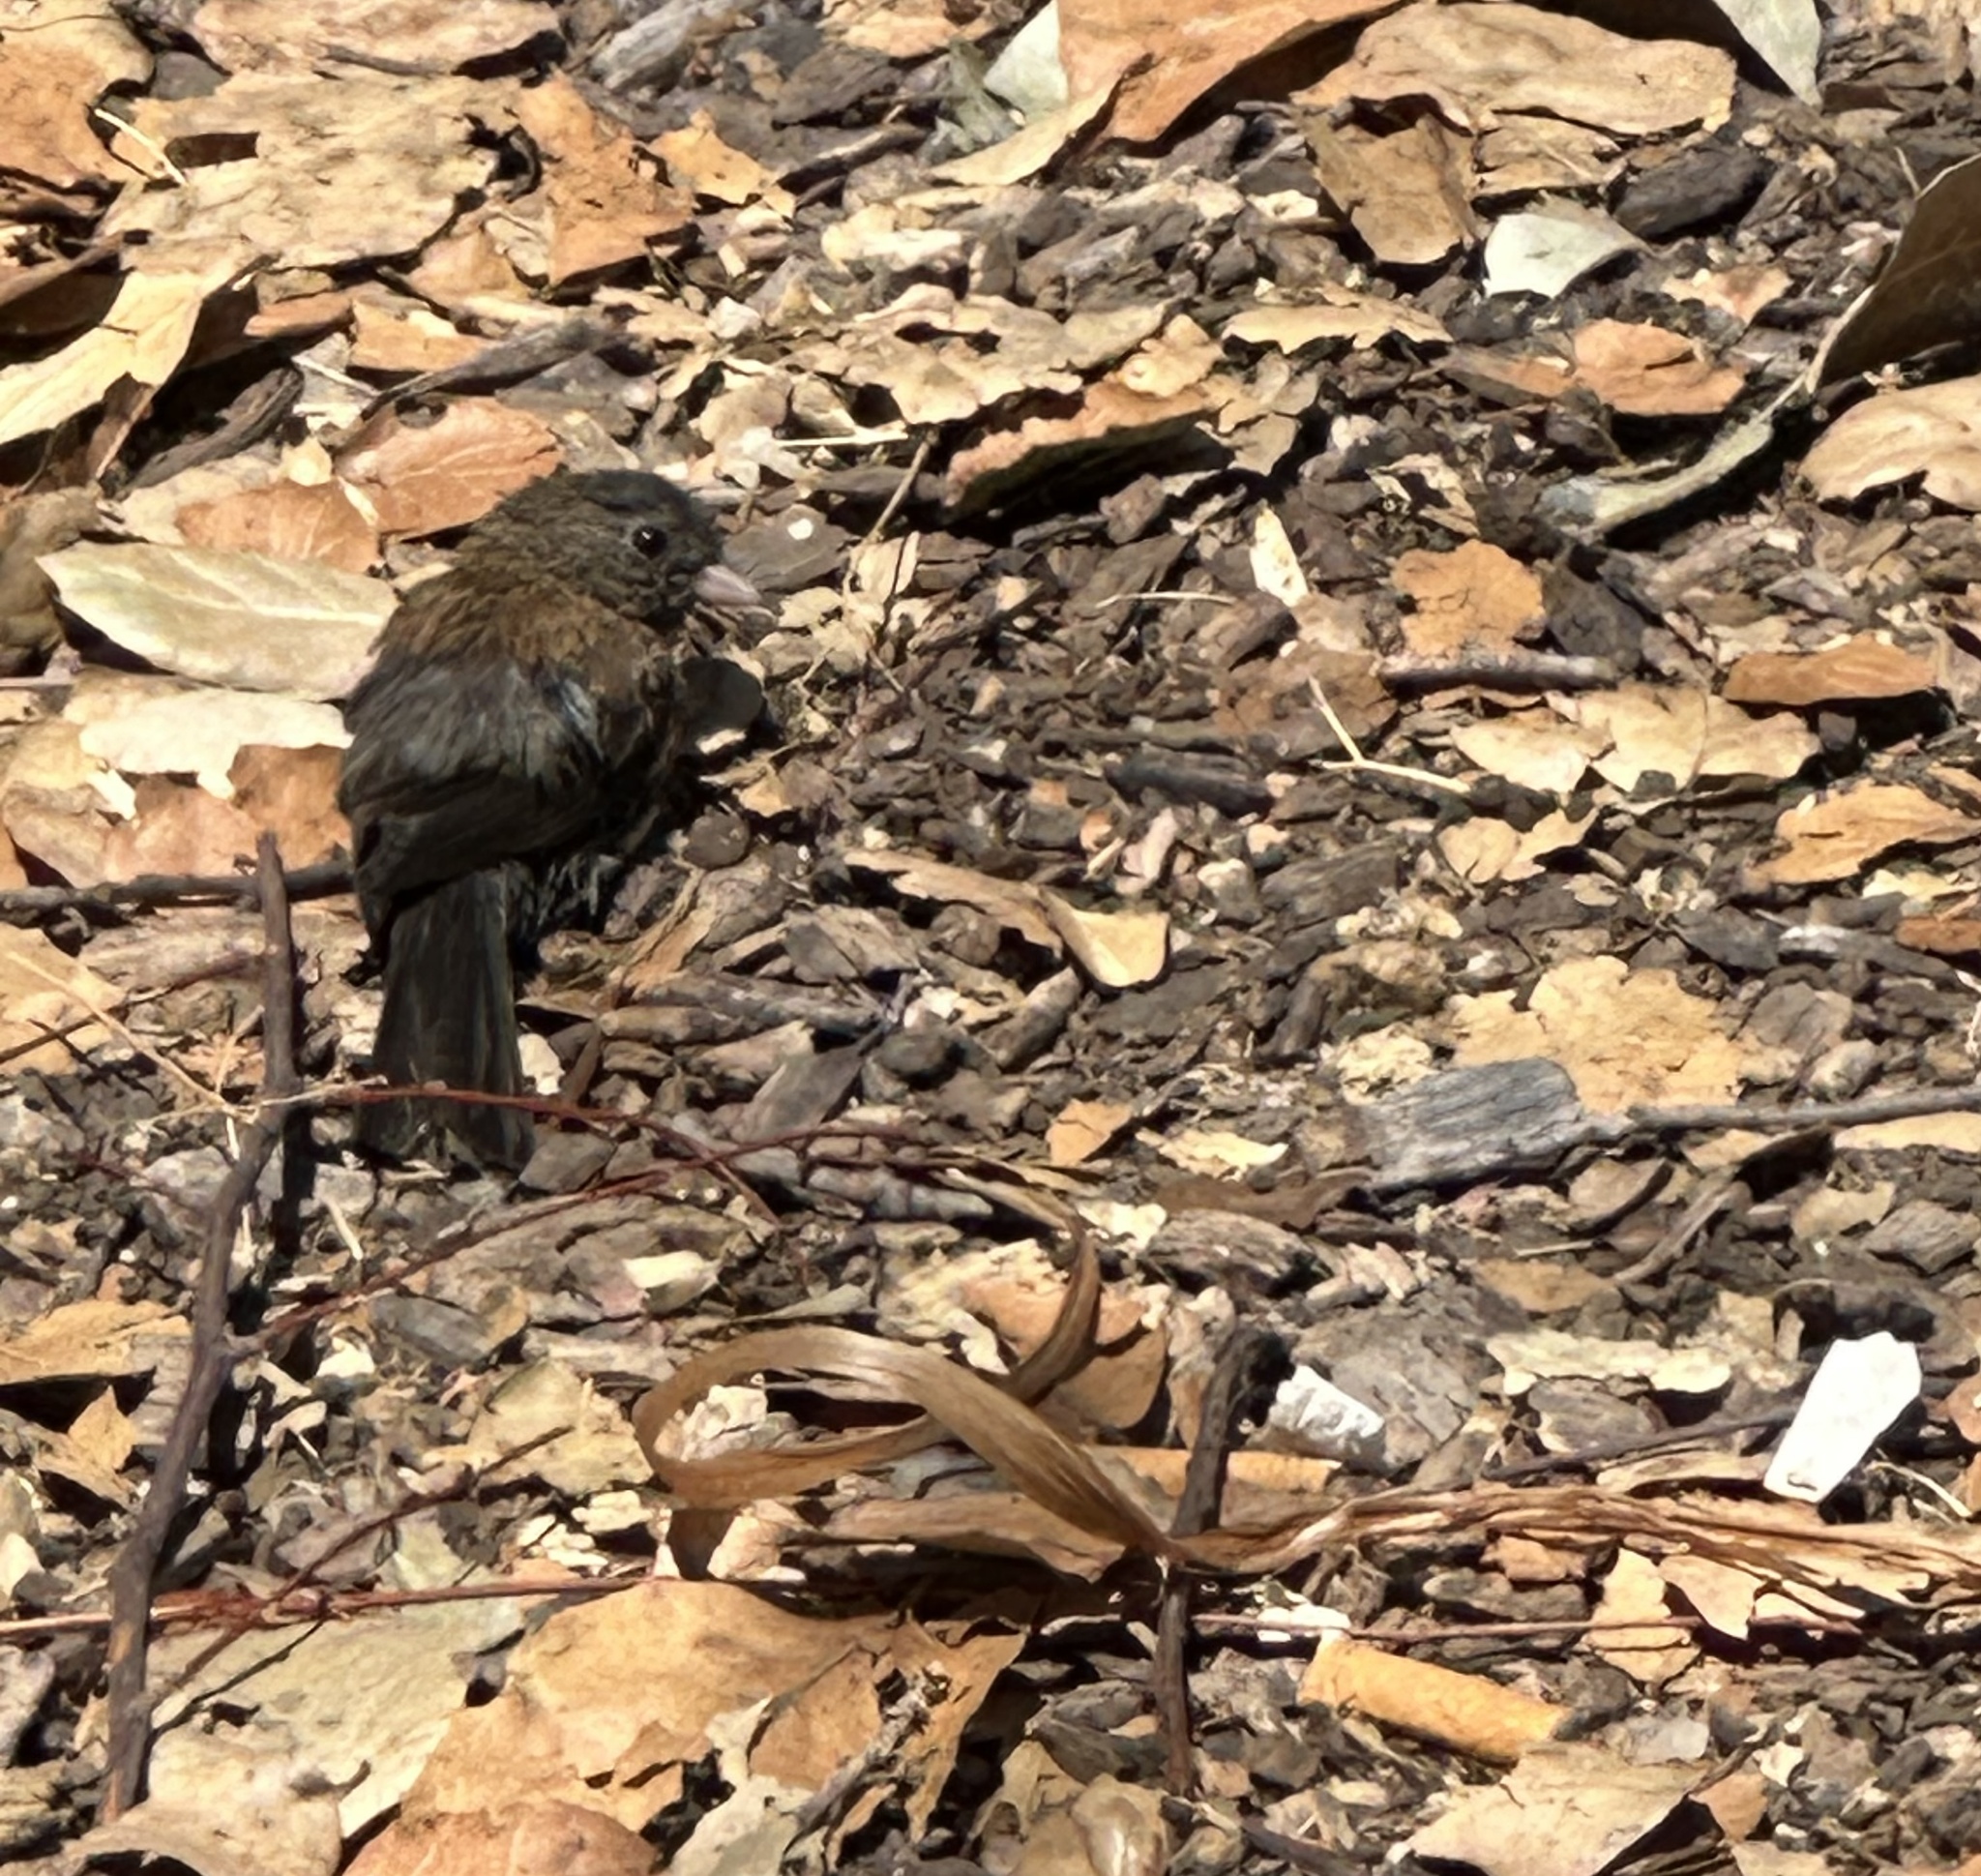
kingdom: Animalia
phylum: Chordata
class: Aves
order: Passeriformes
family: Passerellidae
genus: Junco
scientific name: Junco hyemalis
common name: Dark-eyed junco
